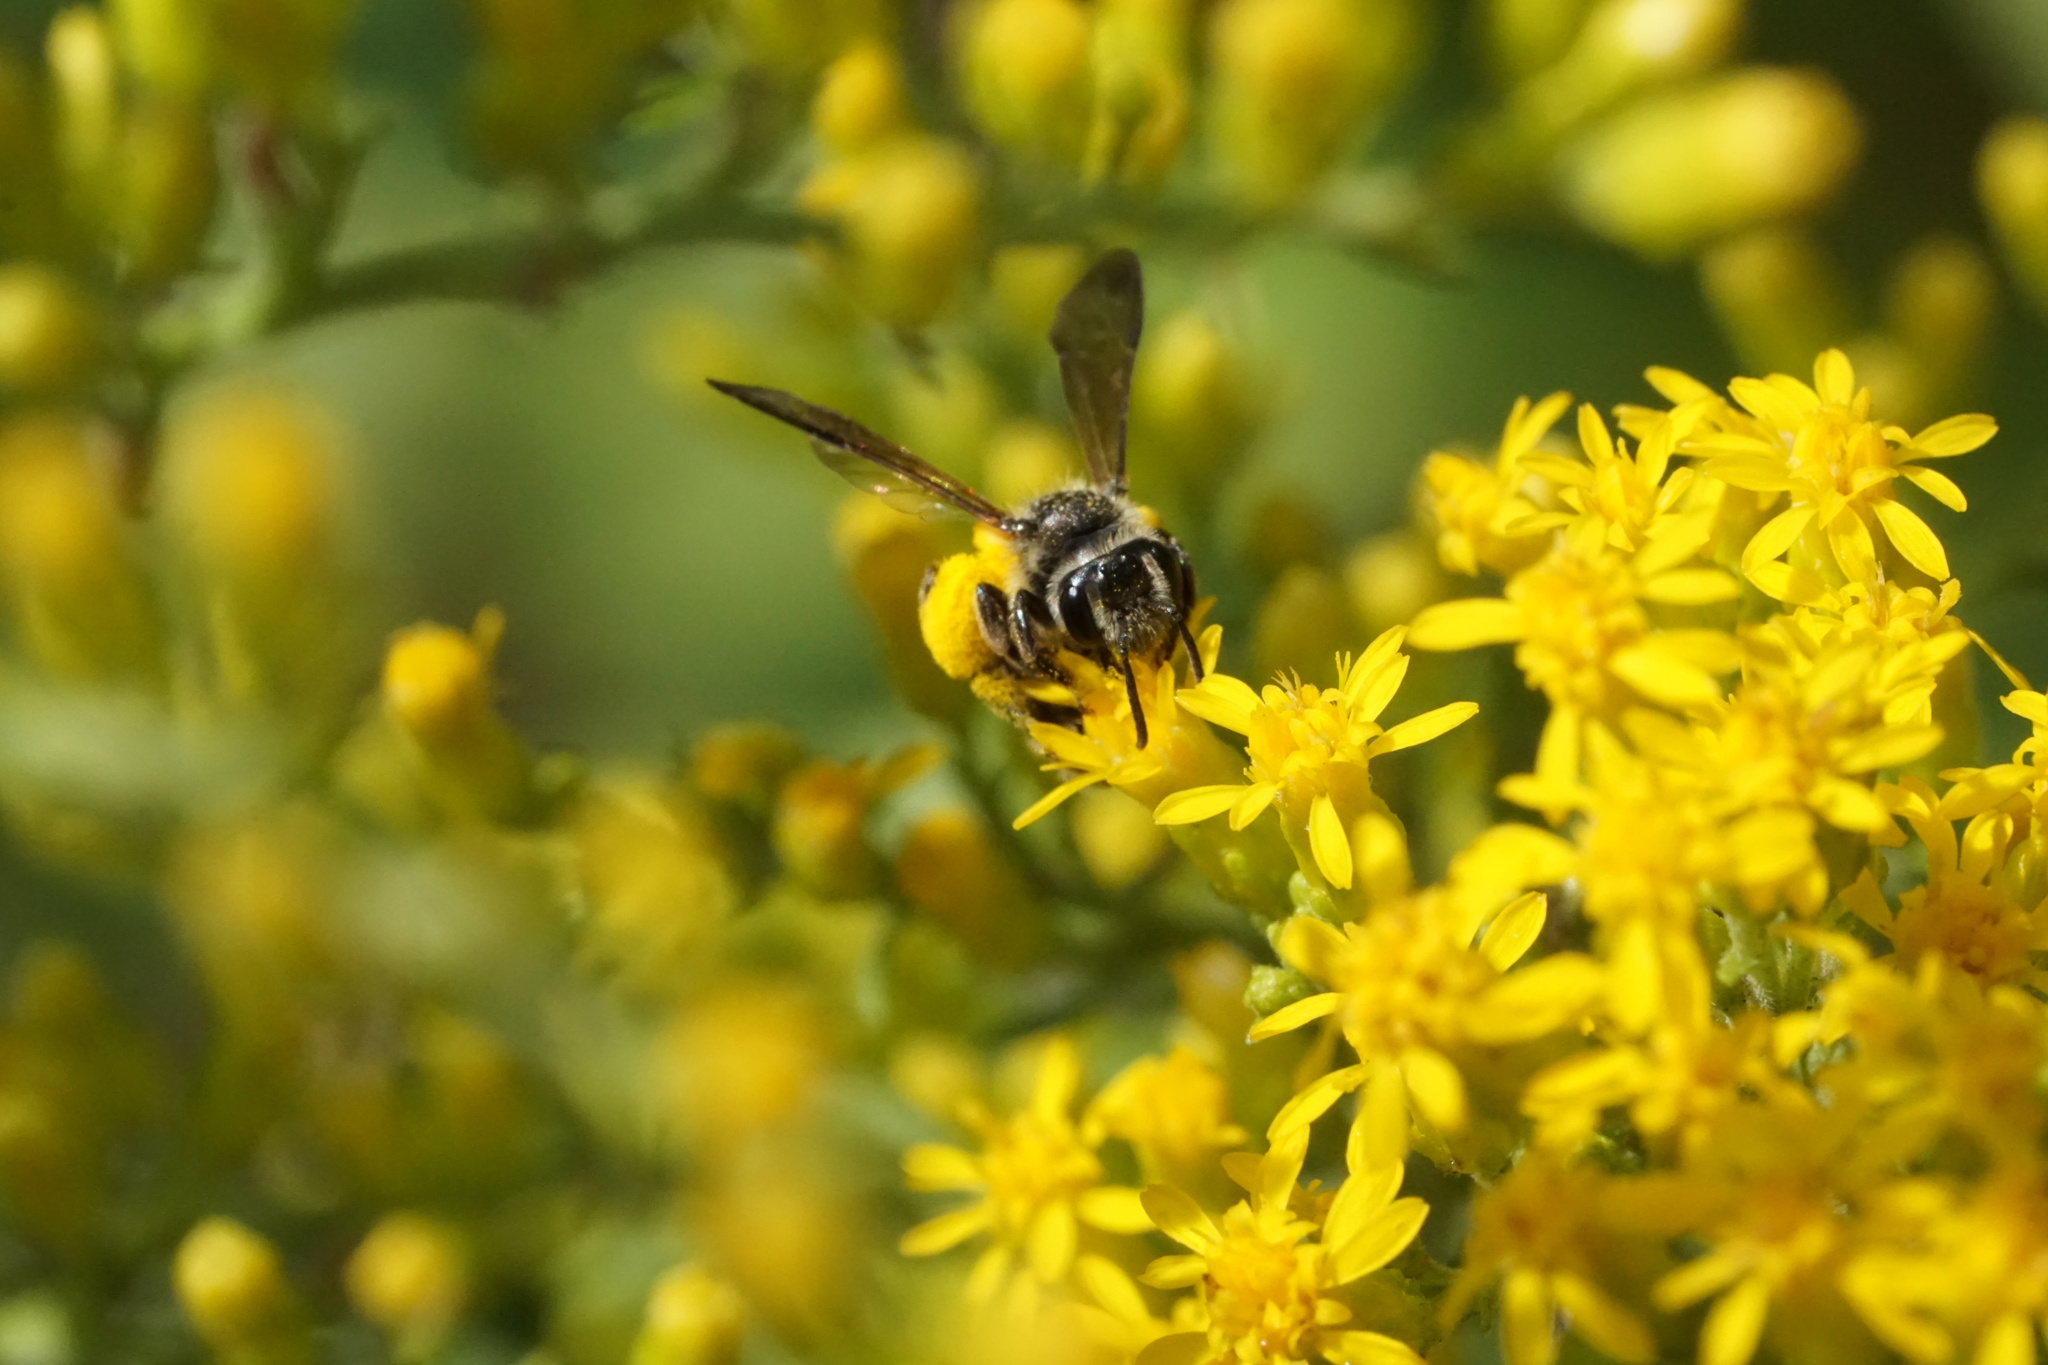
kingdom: Animalia
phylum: Arthropoda
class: Insecta
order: Hymenoptera
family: Andrenidae
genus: Andrena
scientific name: Andrena nubecula
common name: Cloudy-winged mining bee
